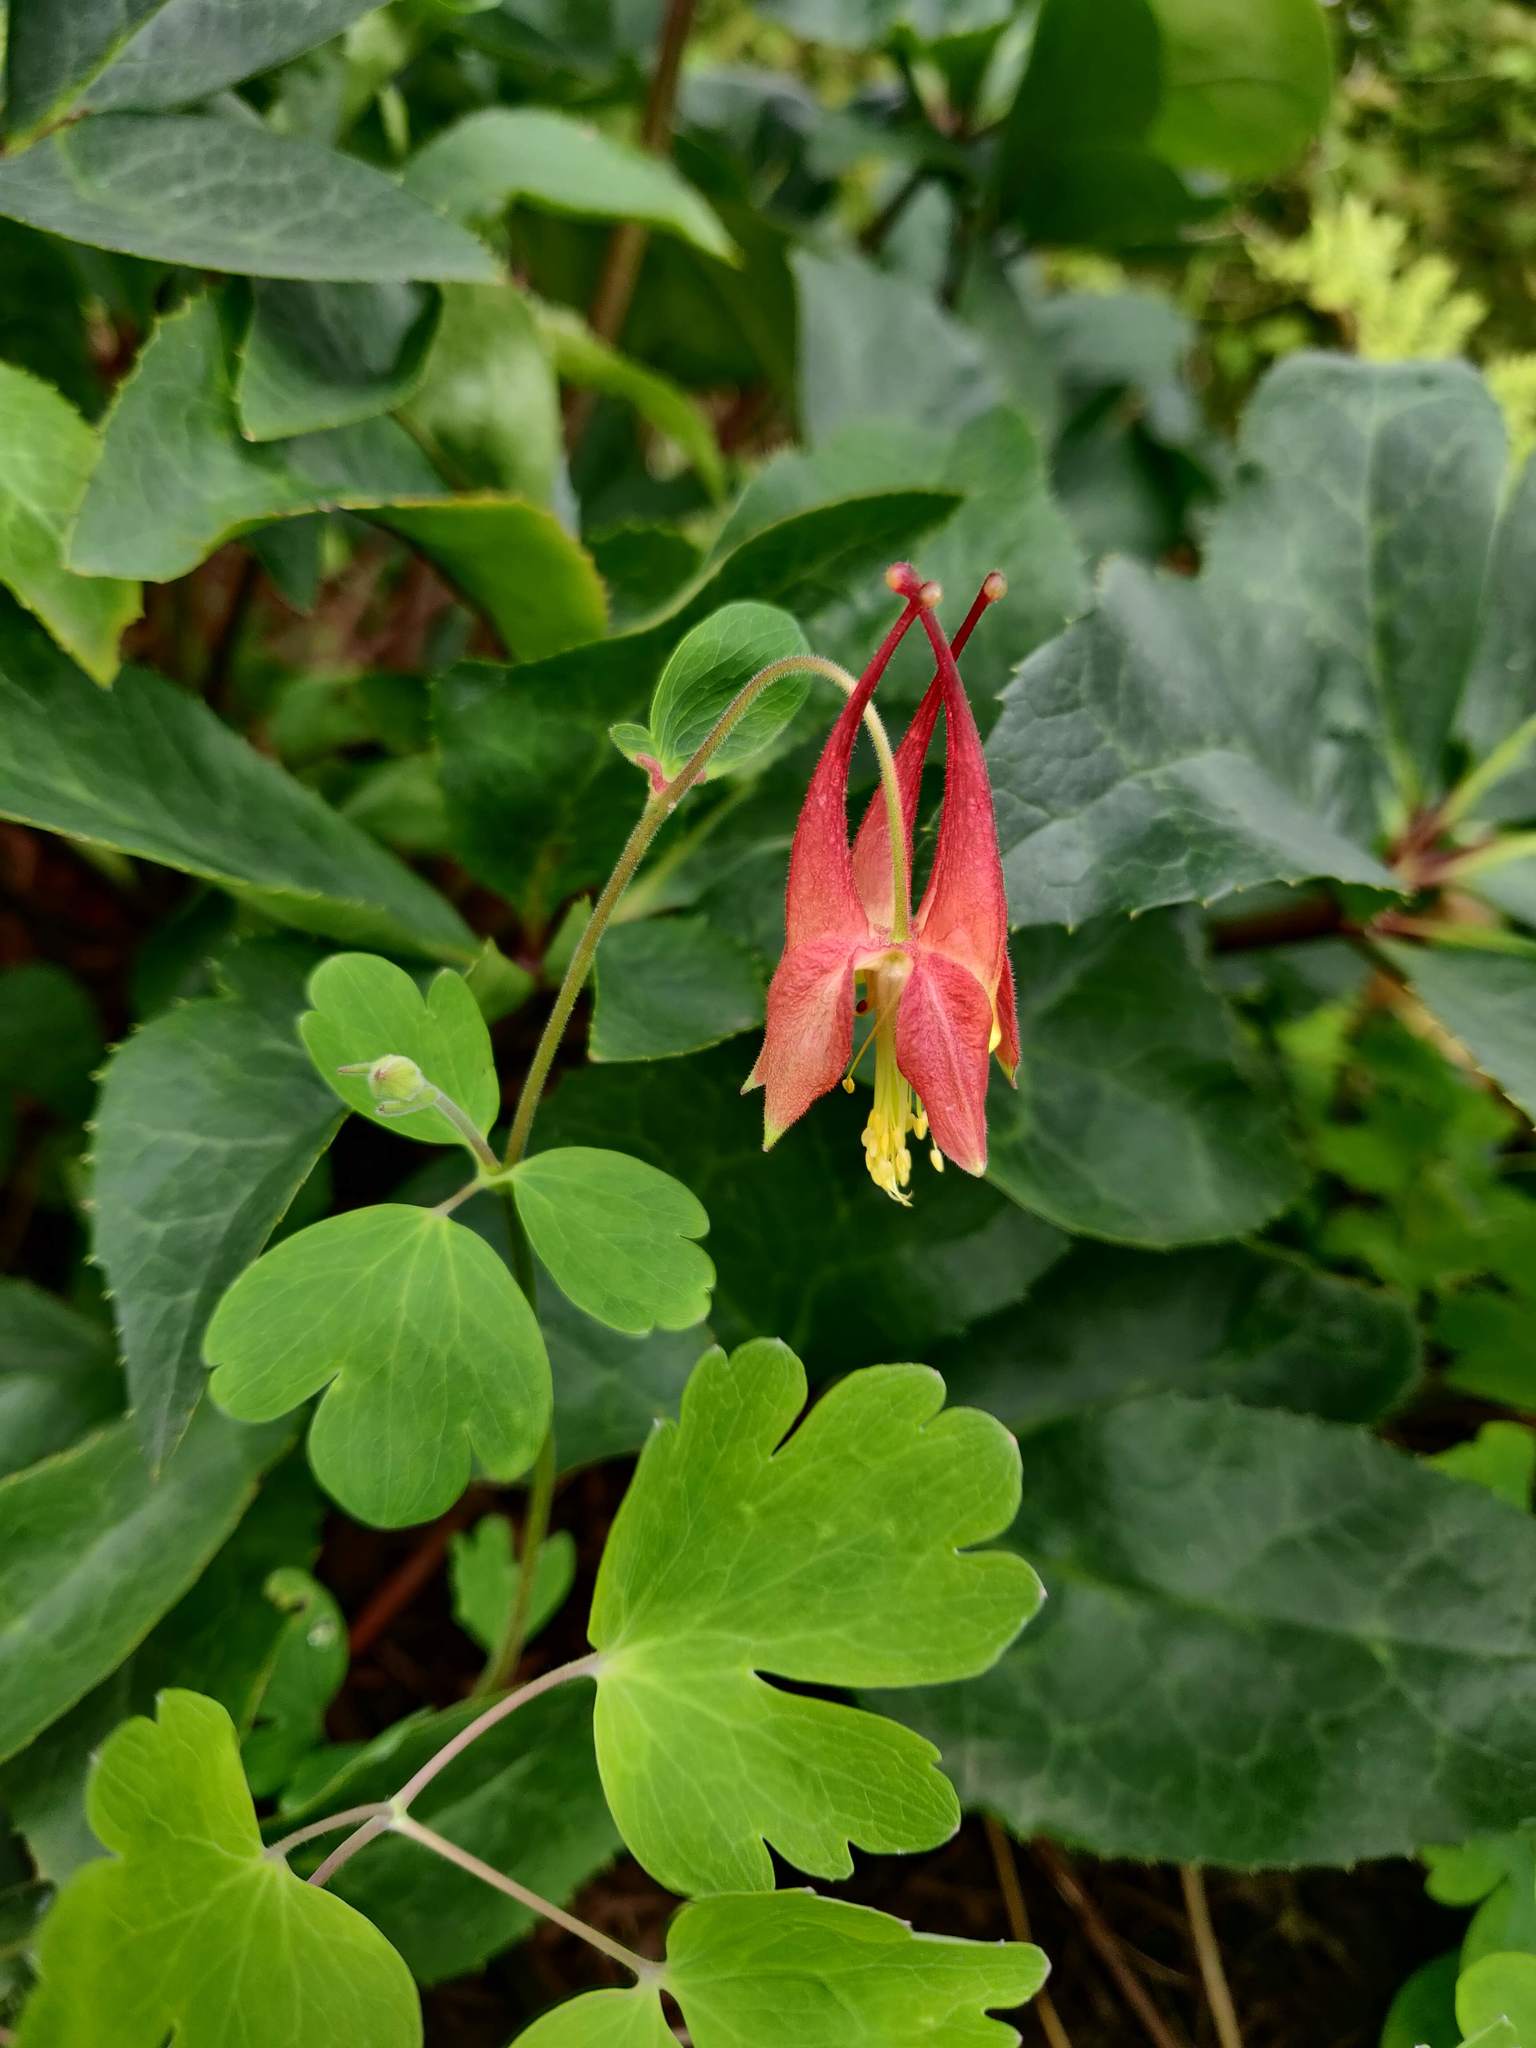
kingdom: Plantae
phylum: Tracheophyta
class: Magnoliopsida
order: Ranunculales
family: Ranunculaceae
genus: Aquilegia
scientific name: Aquilegia canadensis
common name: American columbine
